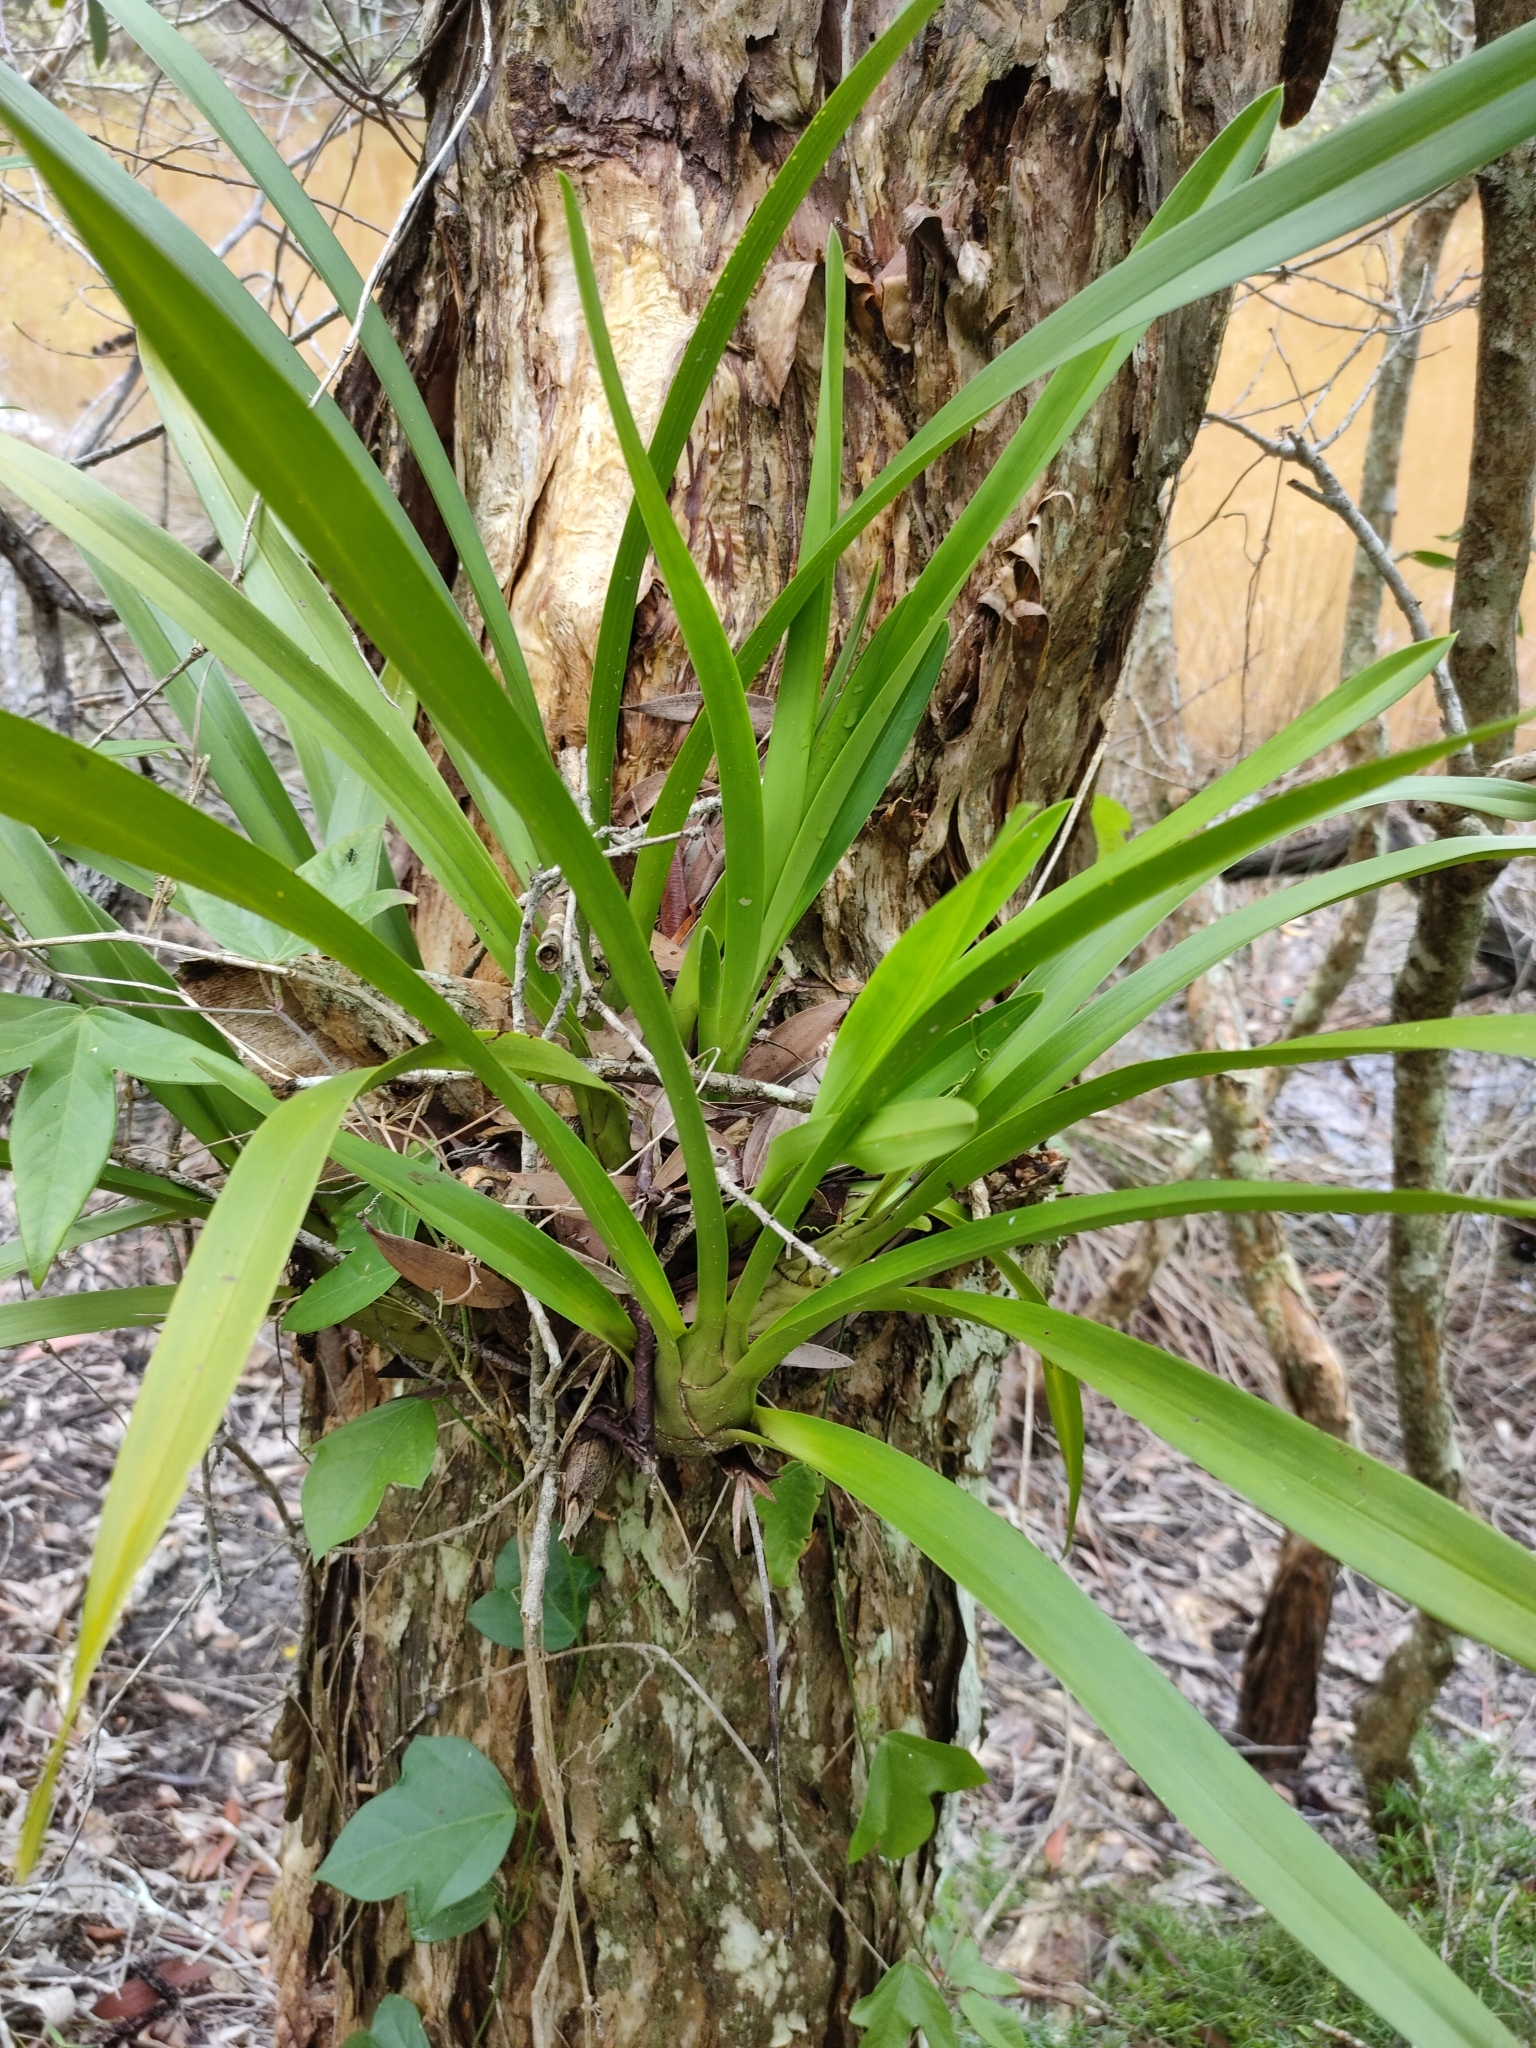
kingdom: Plantae
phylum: Tracheophyta
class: Liliopsida
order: Asparagales
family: Orchidaceae
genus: Cymbidium
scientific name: Cymbidium madidum
